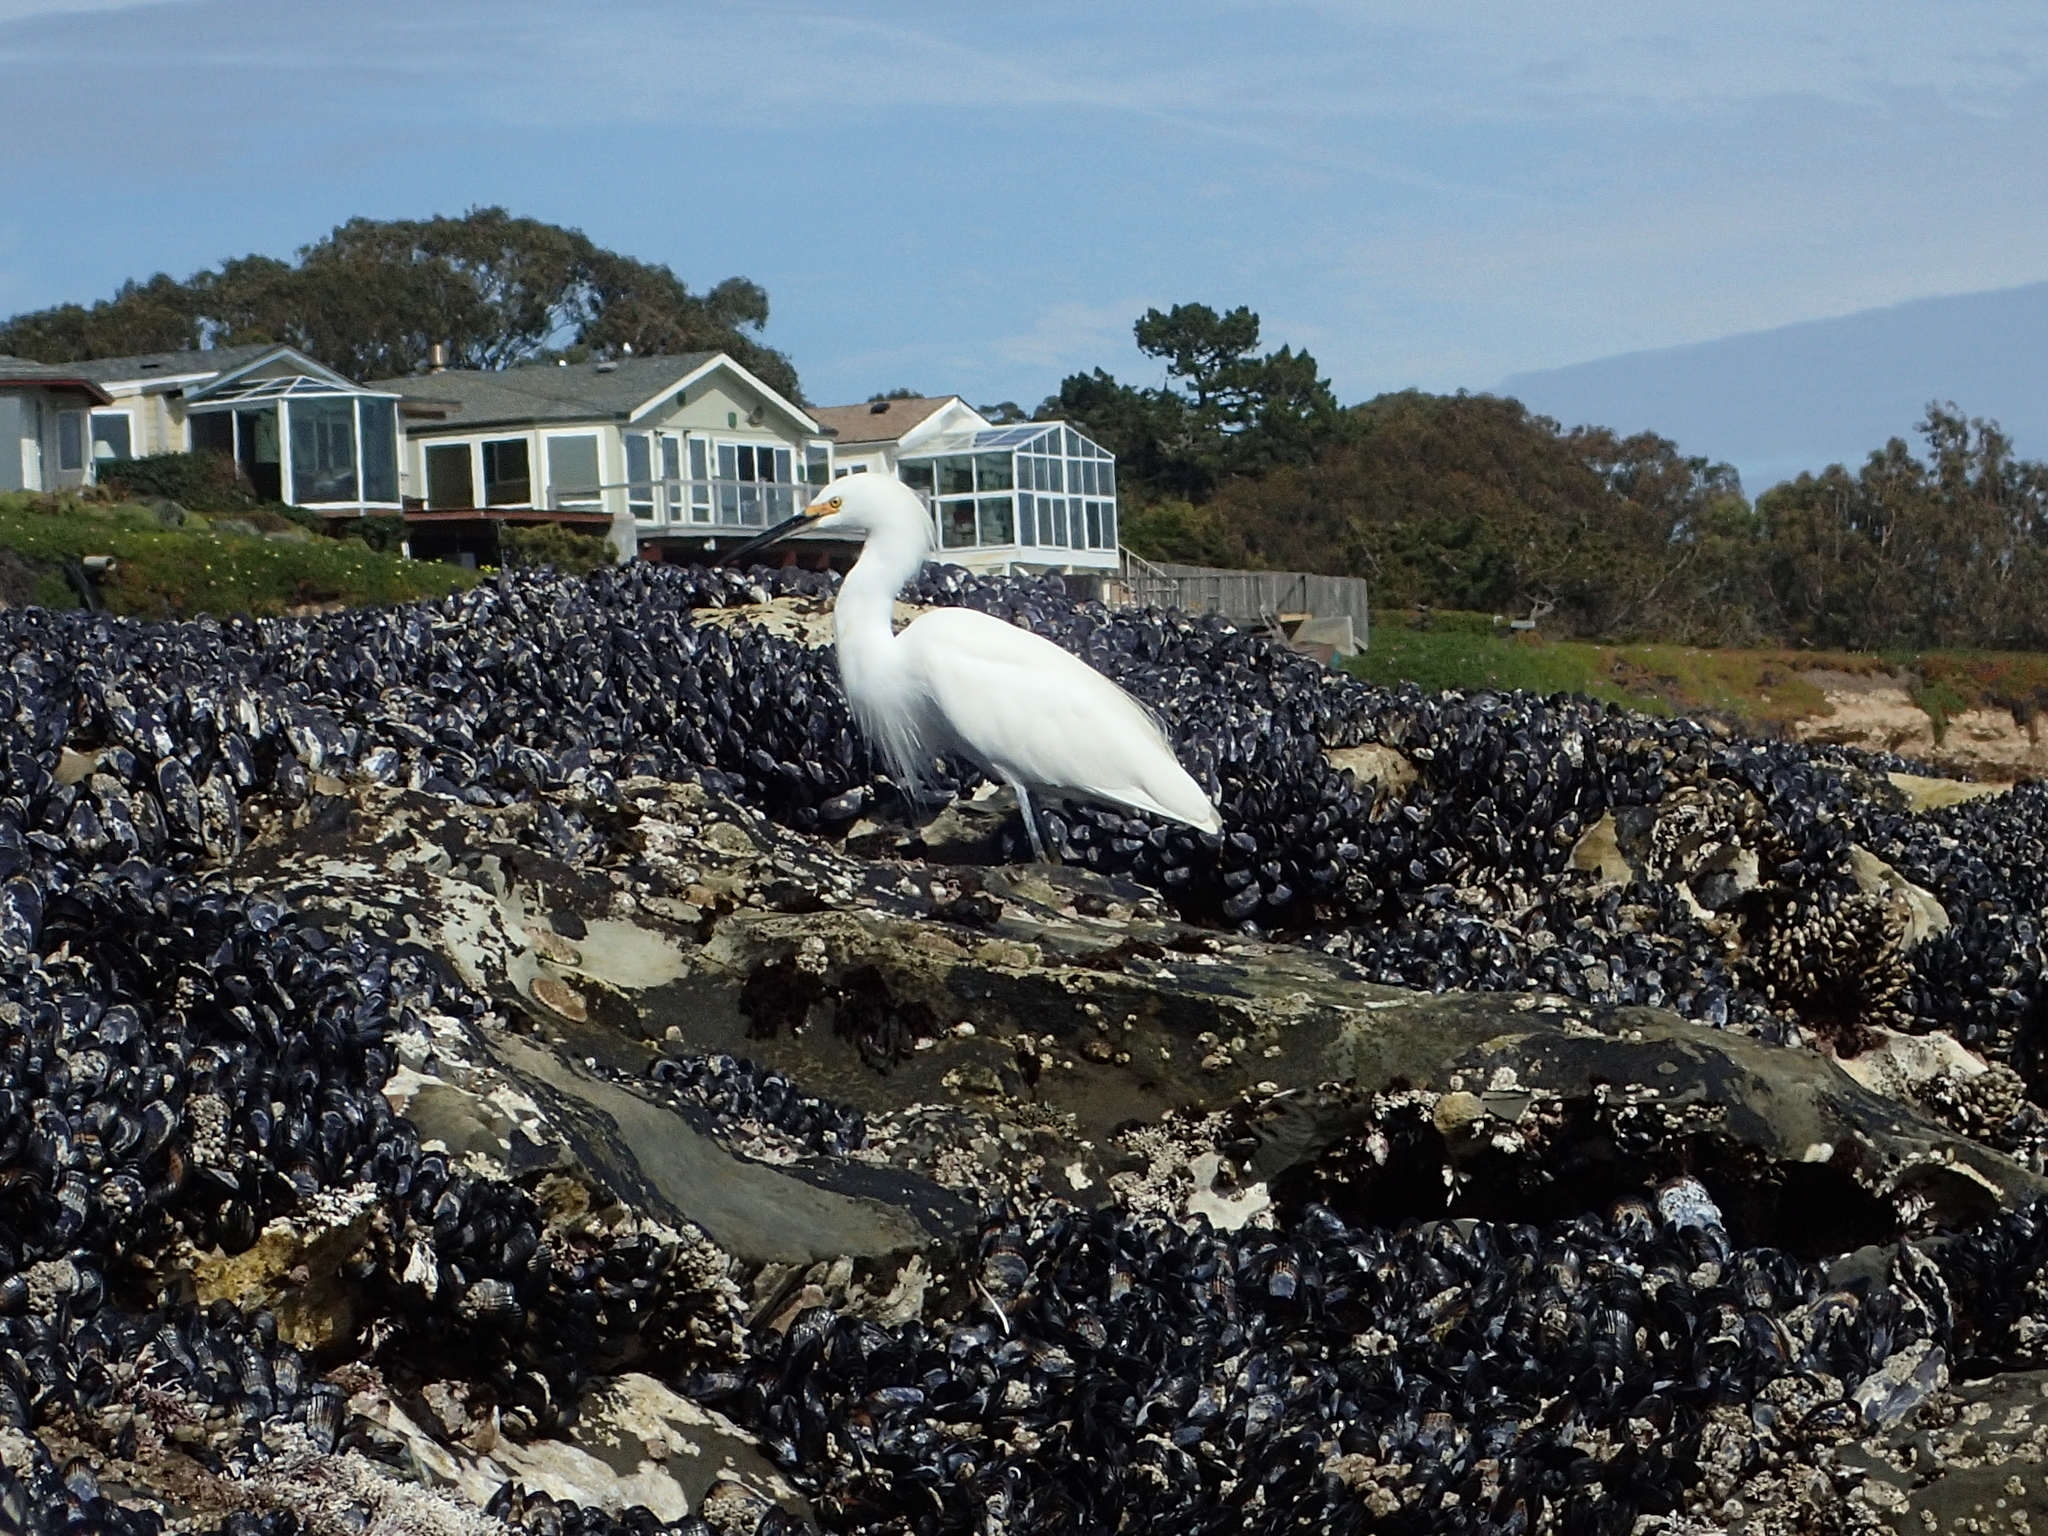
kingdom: Animalia
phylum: Chordata
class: Aves
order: Pelecaniformes
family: Ardeidae
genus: Egretta
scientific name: Egretta thula
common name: Snowy egret
